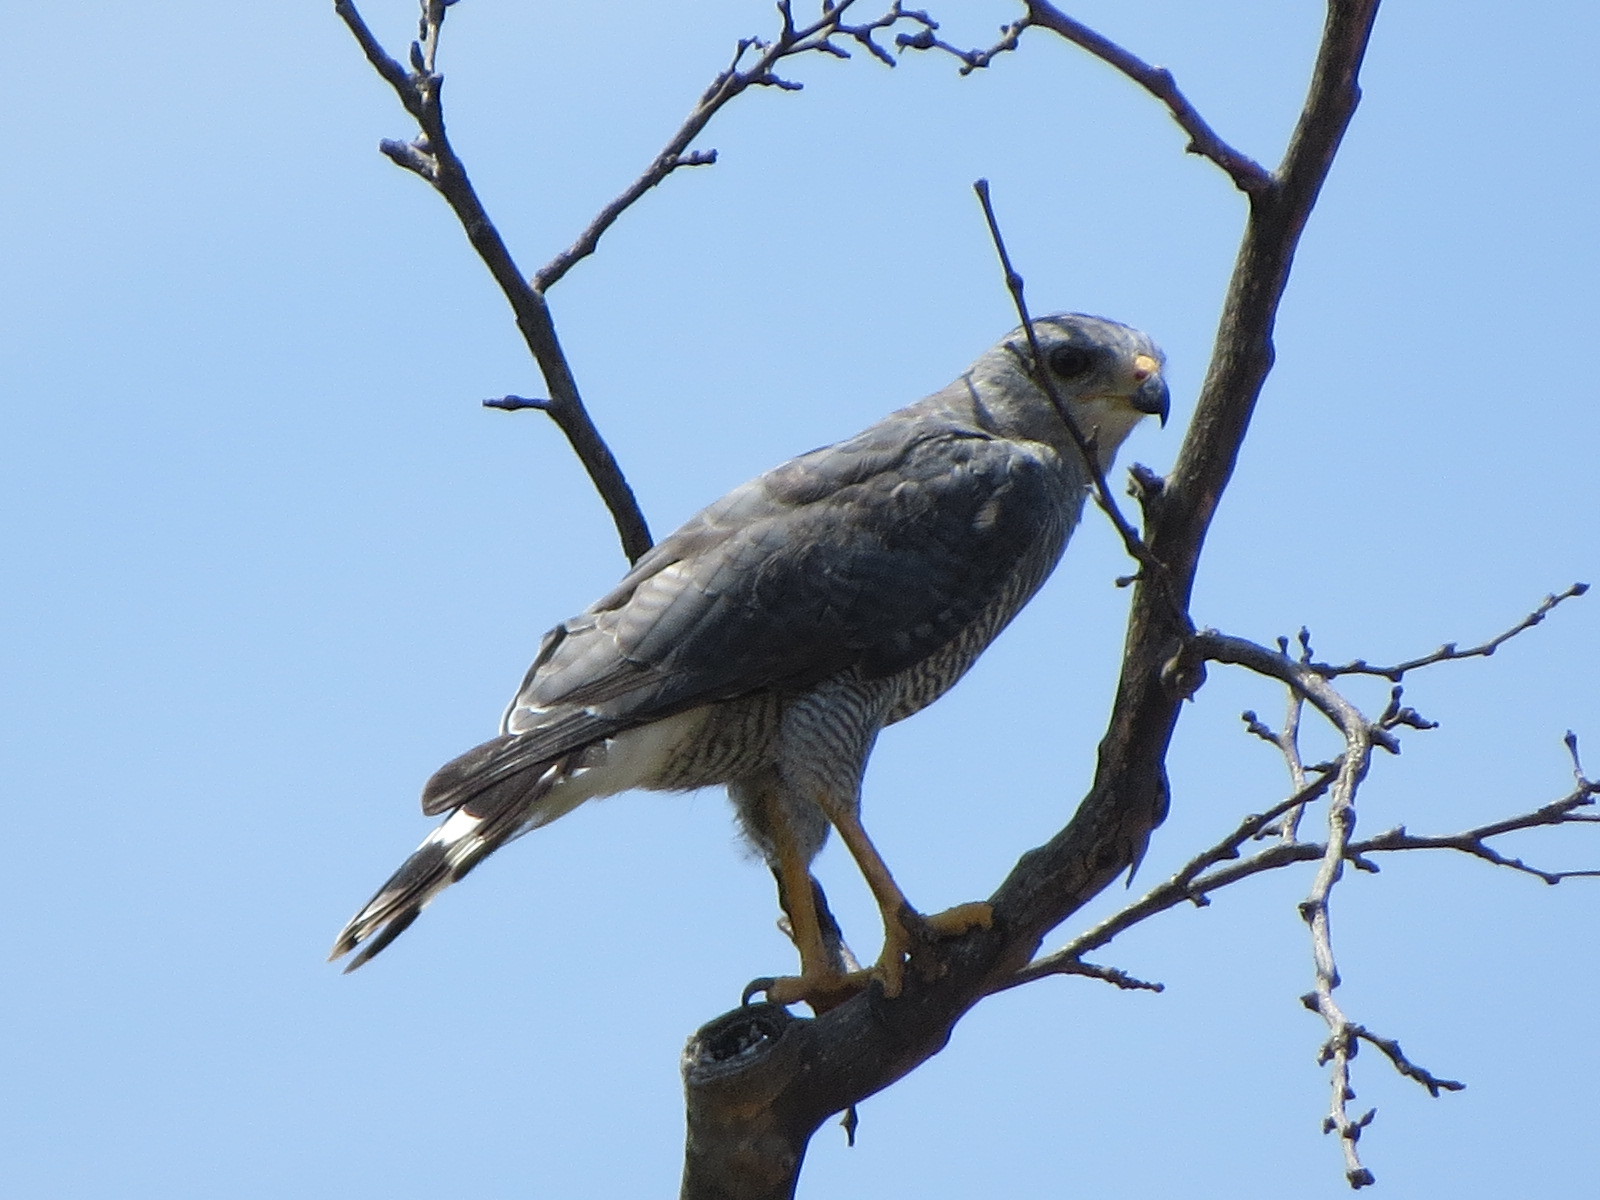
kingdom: Animalia
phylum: Chordata
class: Aves
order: Accipitriformes
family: Accipitridae
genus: Buteo
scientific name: Buteo nitidus
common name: Grey-lined hawk
